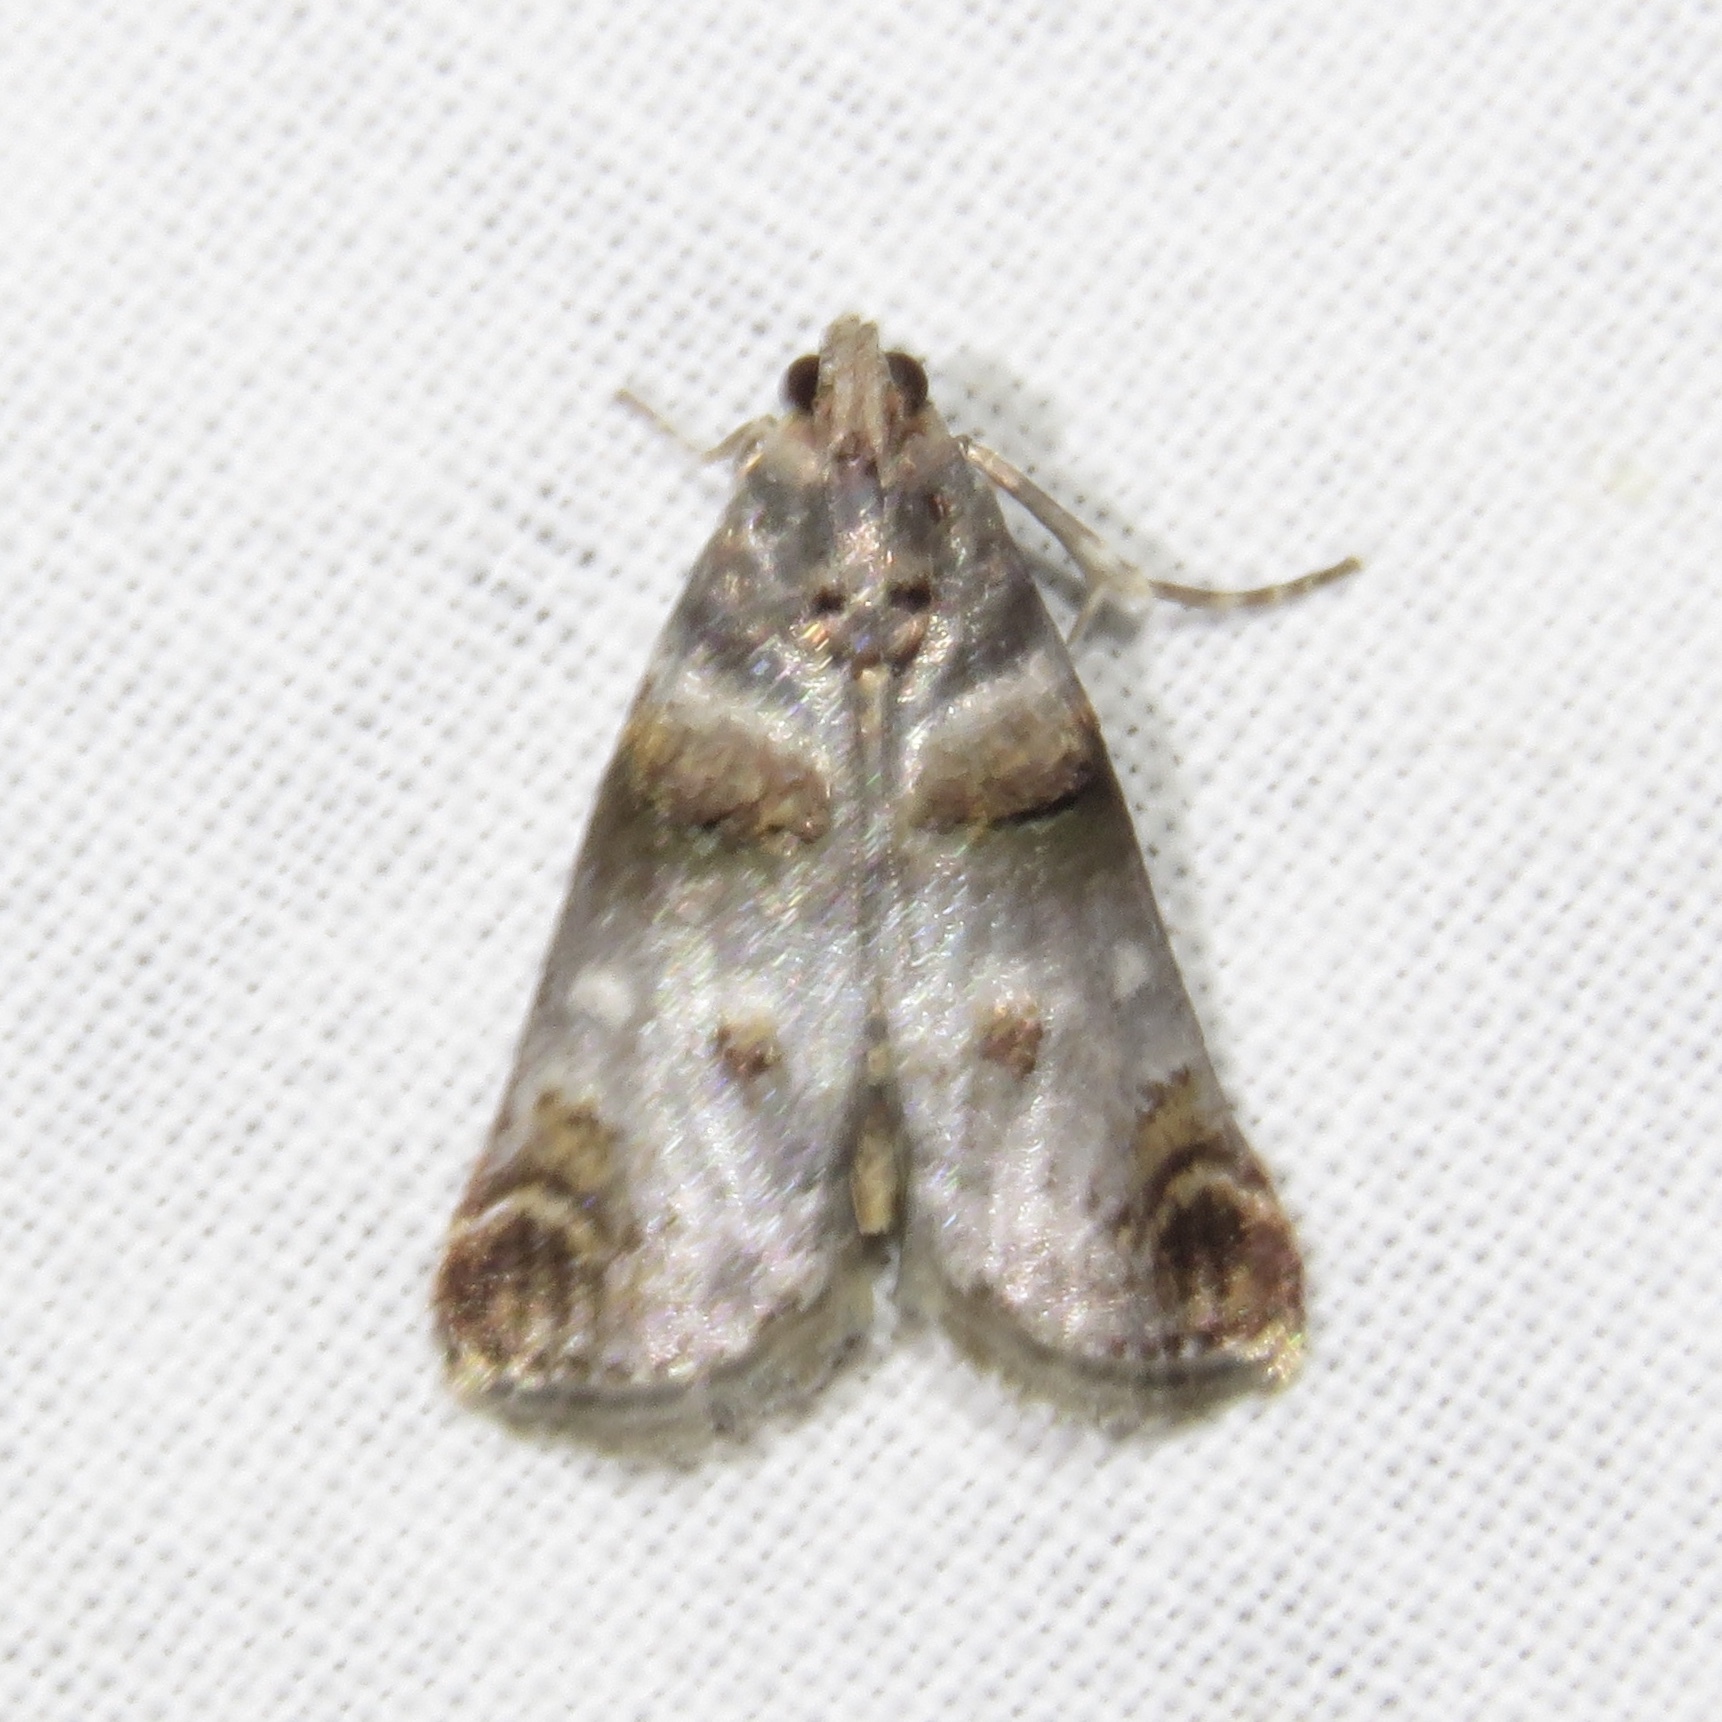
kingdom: Animalia
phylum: Arthropoda
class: Insecta
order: Lepidoptera
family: Pyralidae
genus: Oneida
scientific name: Oneida lunulalis
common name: Orange-tufted oneida moth
